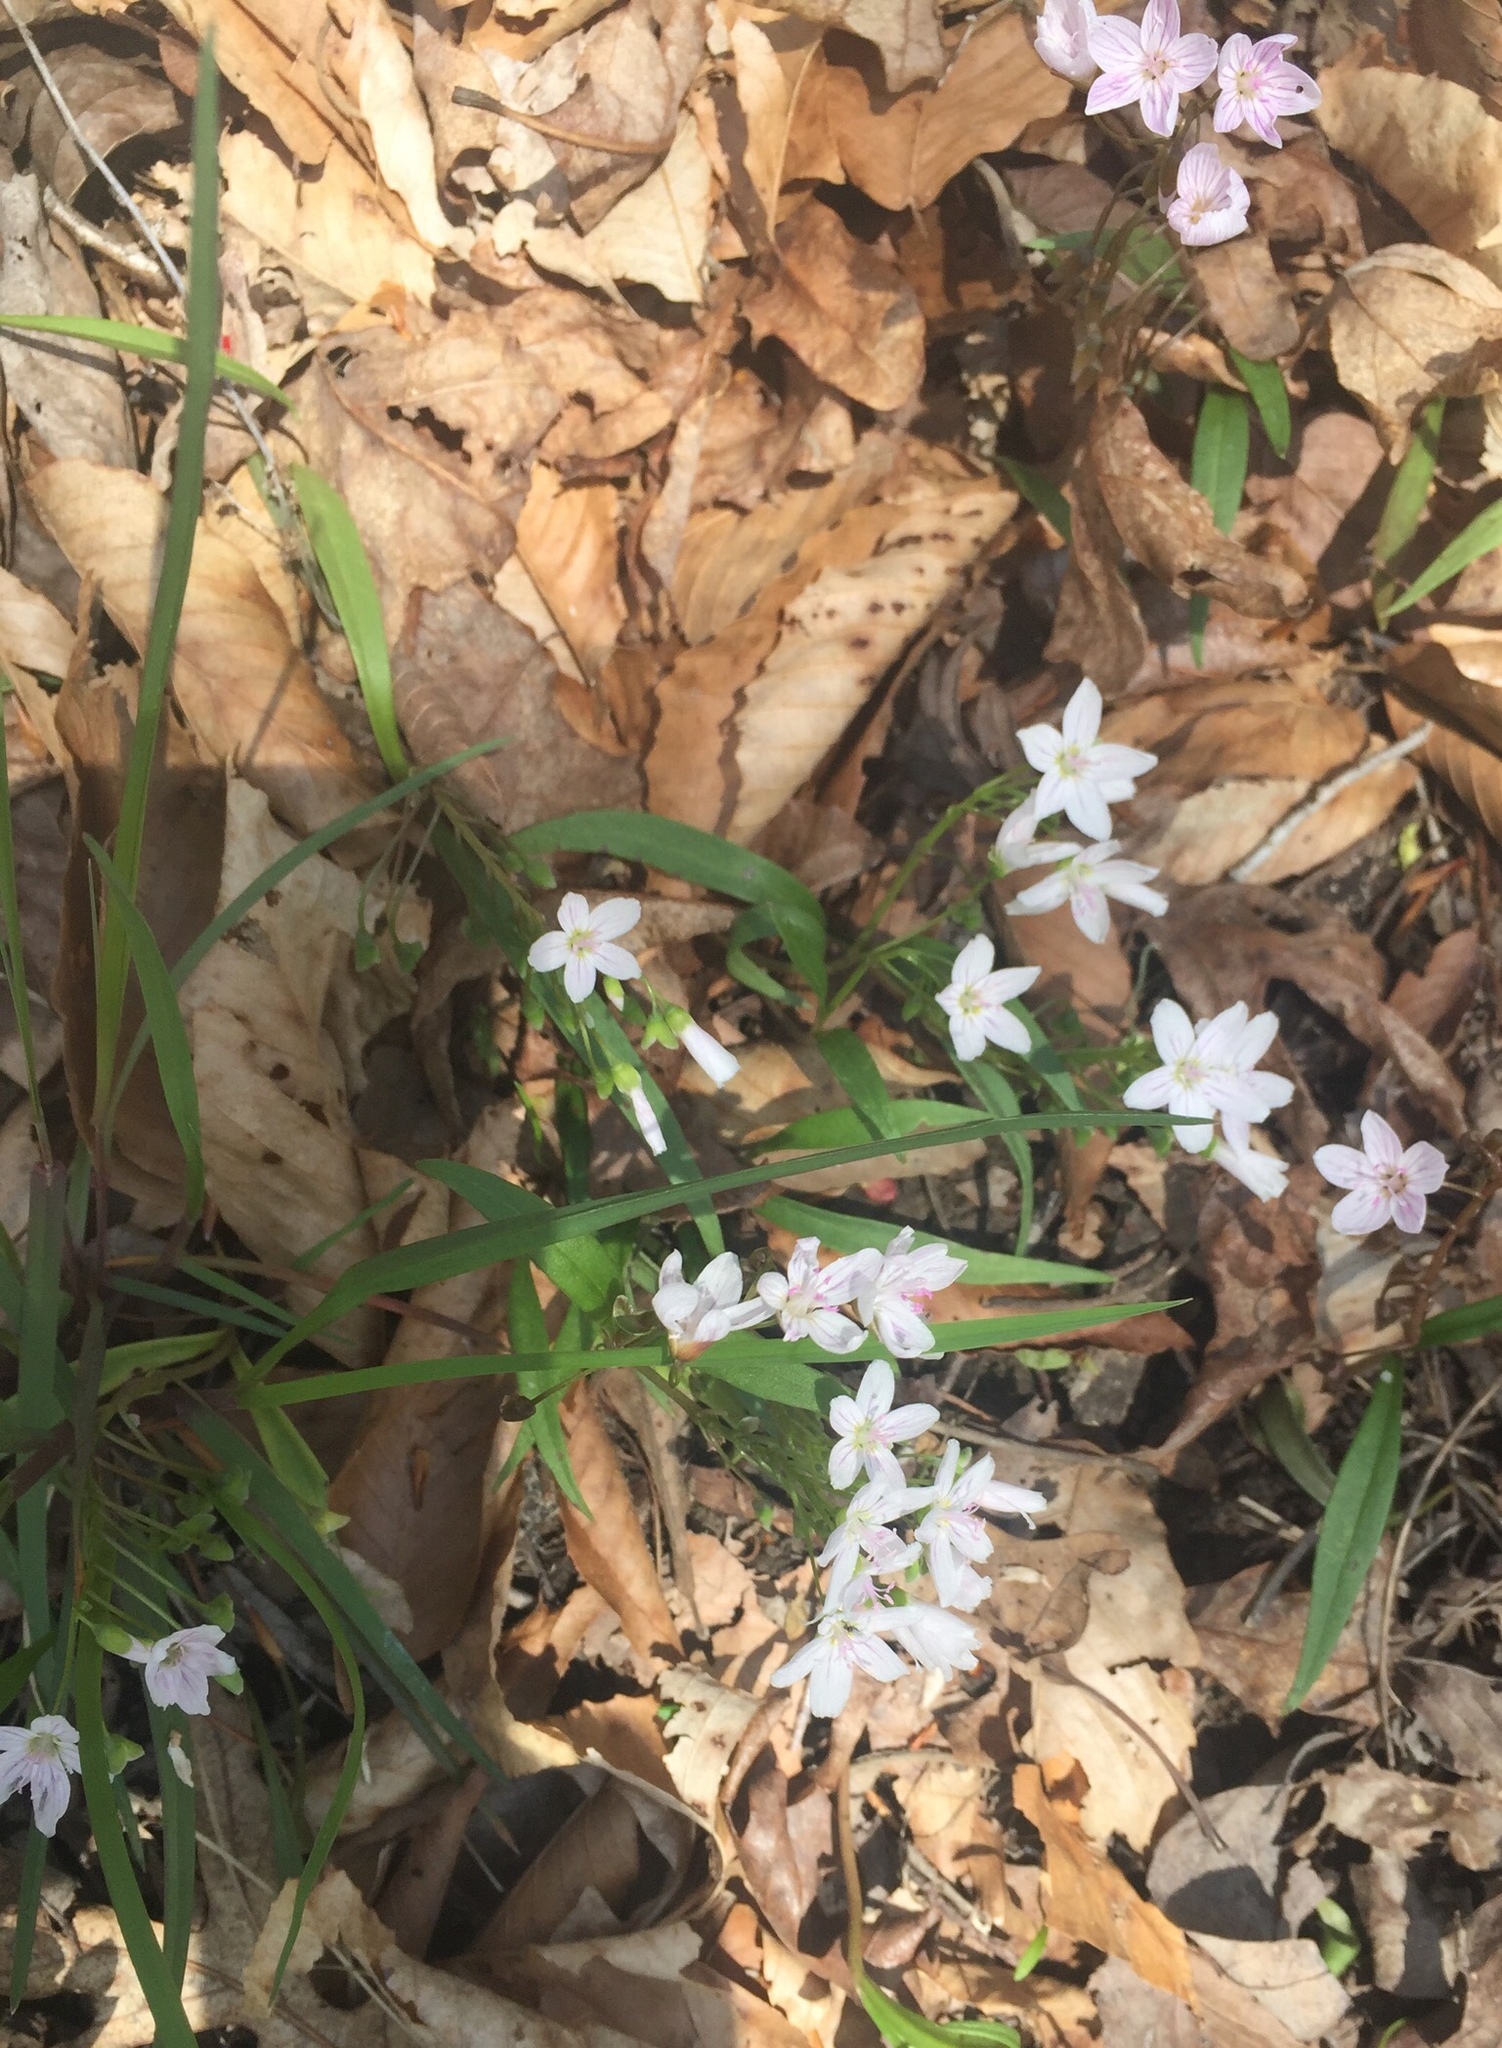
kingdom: Plantae
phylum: Tracheophyta
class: Magnoliopsida
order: Caryophyllales
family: Montiaceae
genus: Claytonia
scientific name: Claytonia virginica
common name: Virginia springbeauty
